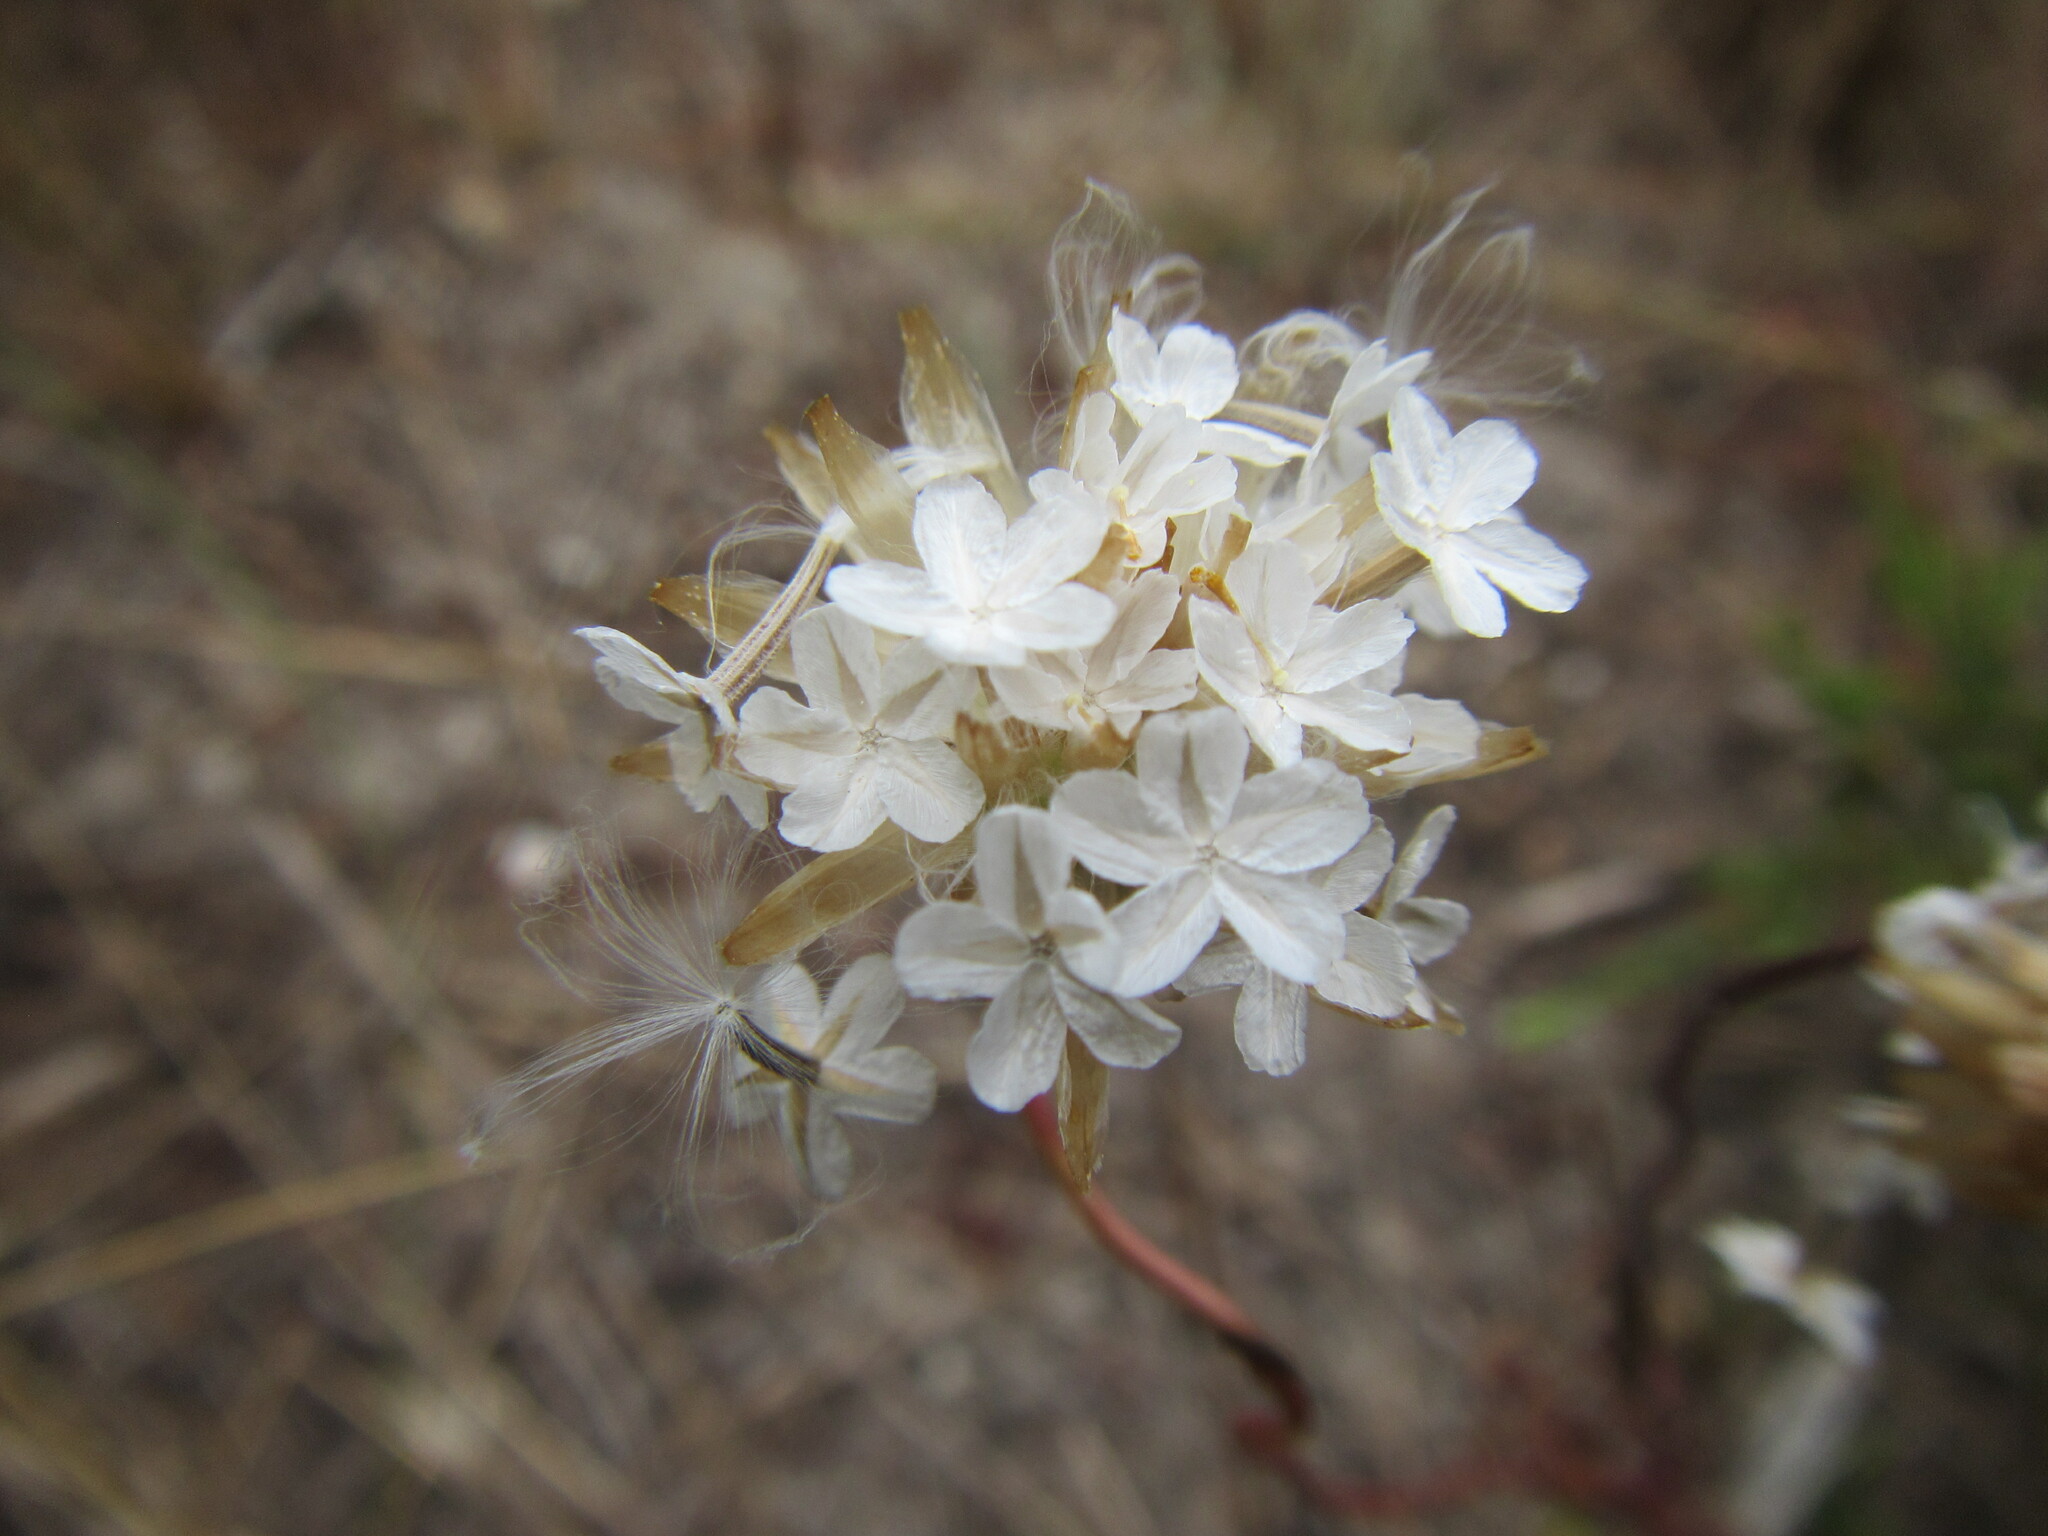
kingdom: Plantae
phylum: Tracheophyta
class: Magnoliopsida
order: Asterales
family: Asteraceae
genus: Ursinia
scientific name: Ursinia anthemoides
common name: Ursinia
